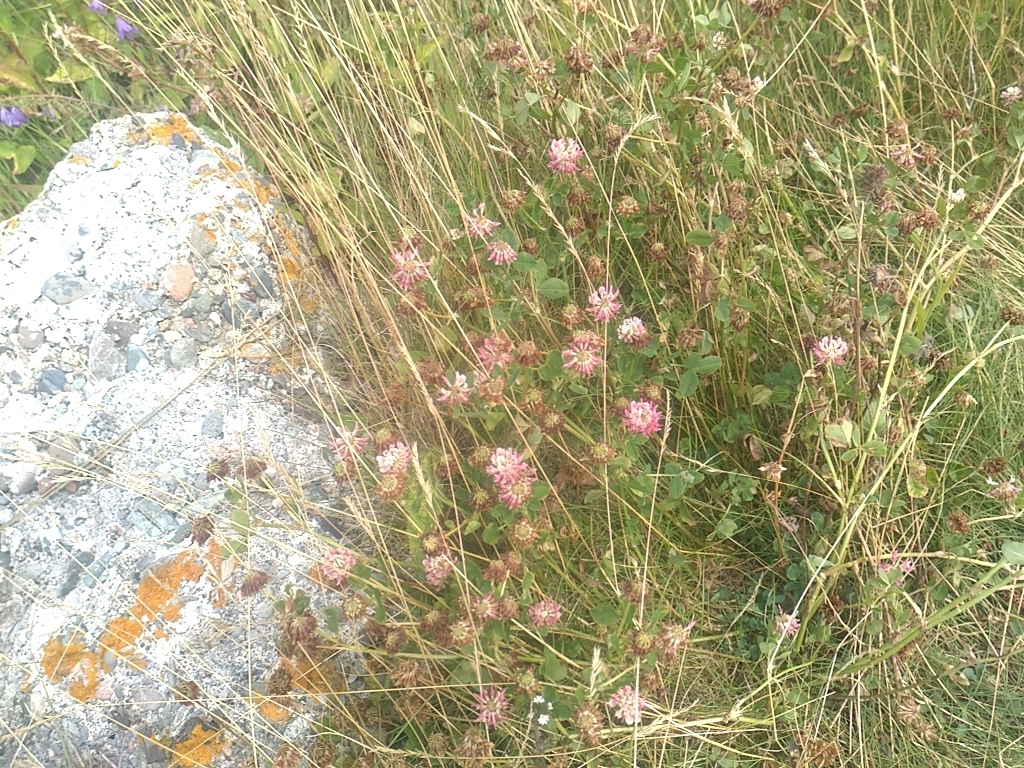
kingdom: Plantae
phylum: Tracheophyta
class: Magnoliopsida
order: Fabales
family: Fabaceae
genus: Trifolium
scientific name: Trifolium hybridum
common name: Alsike clover
